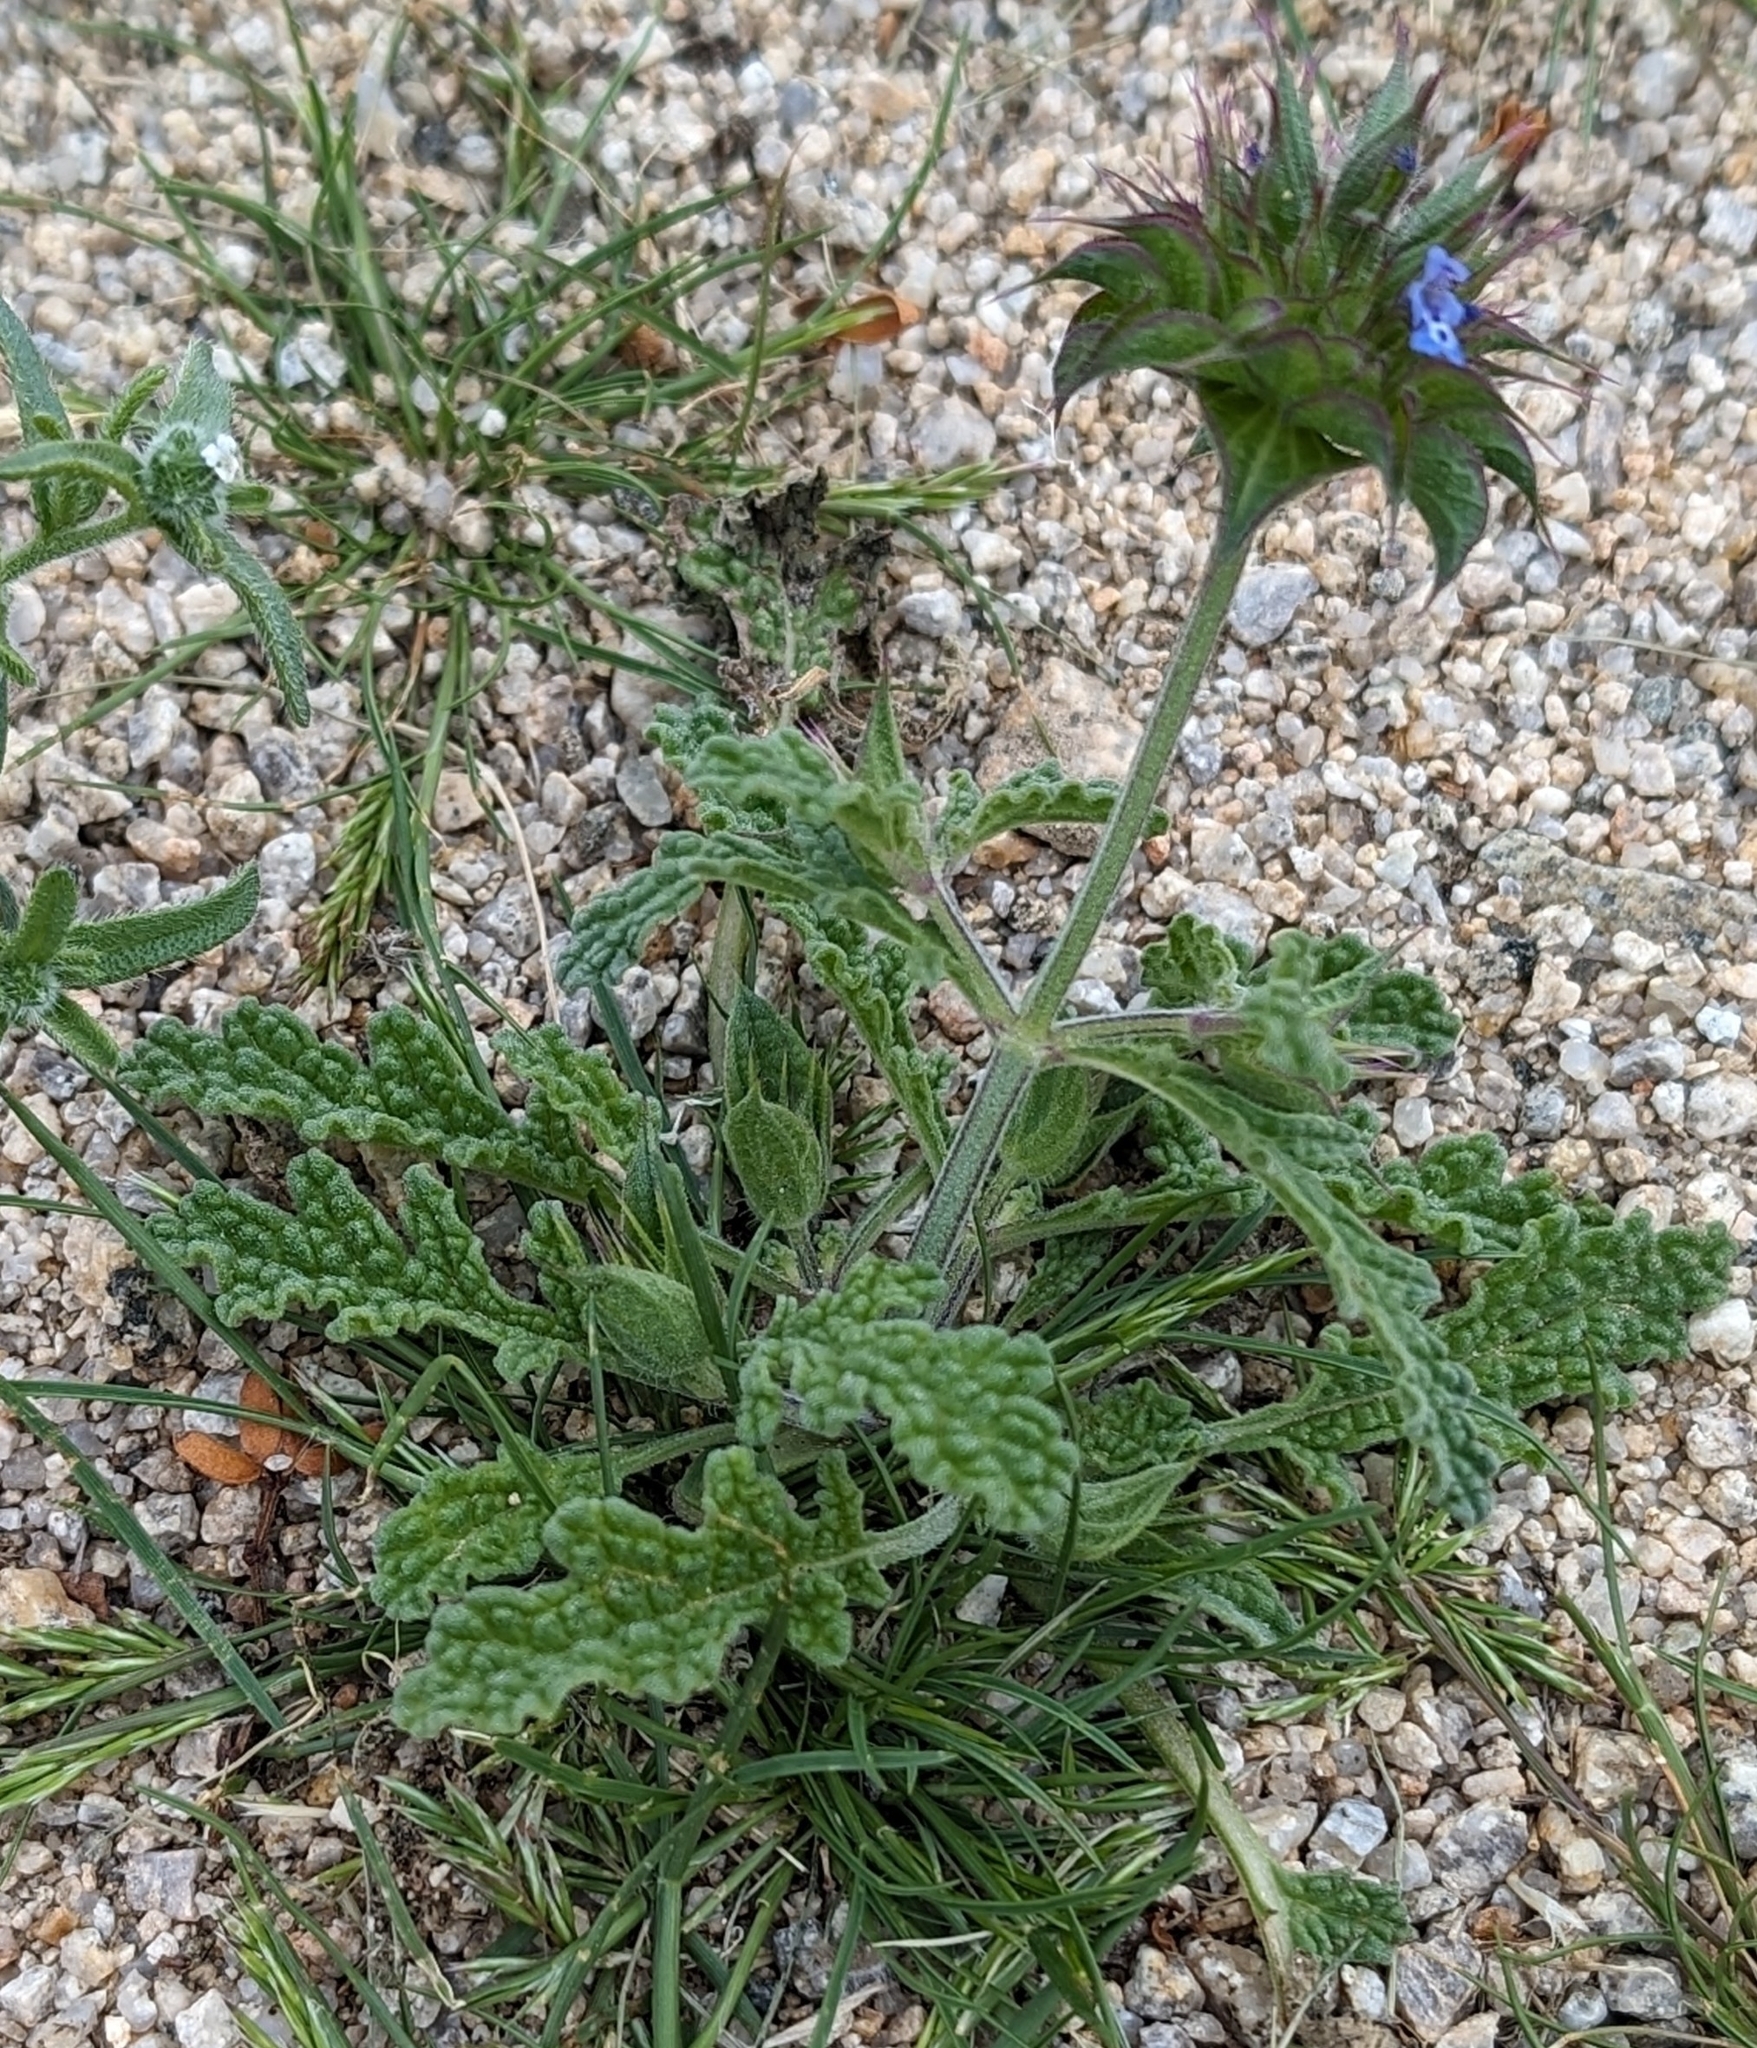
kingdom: Plantae
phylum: Tracheophyta
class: Magnoliopsida
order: Lamiales
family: Lamiaceae
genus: Salvia
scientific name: Salvia columbariae
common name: Chia
